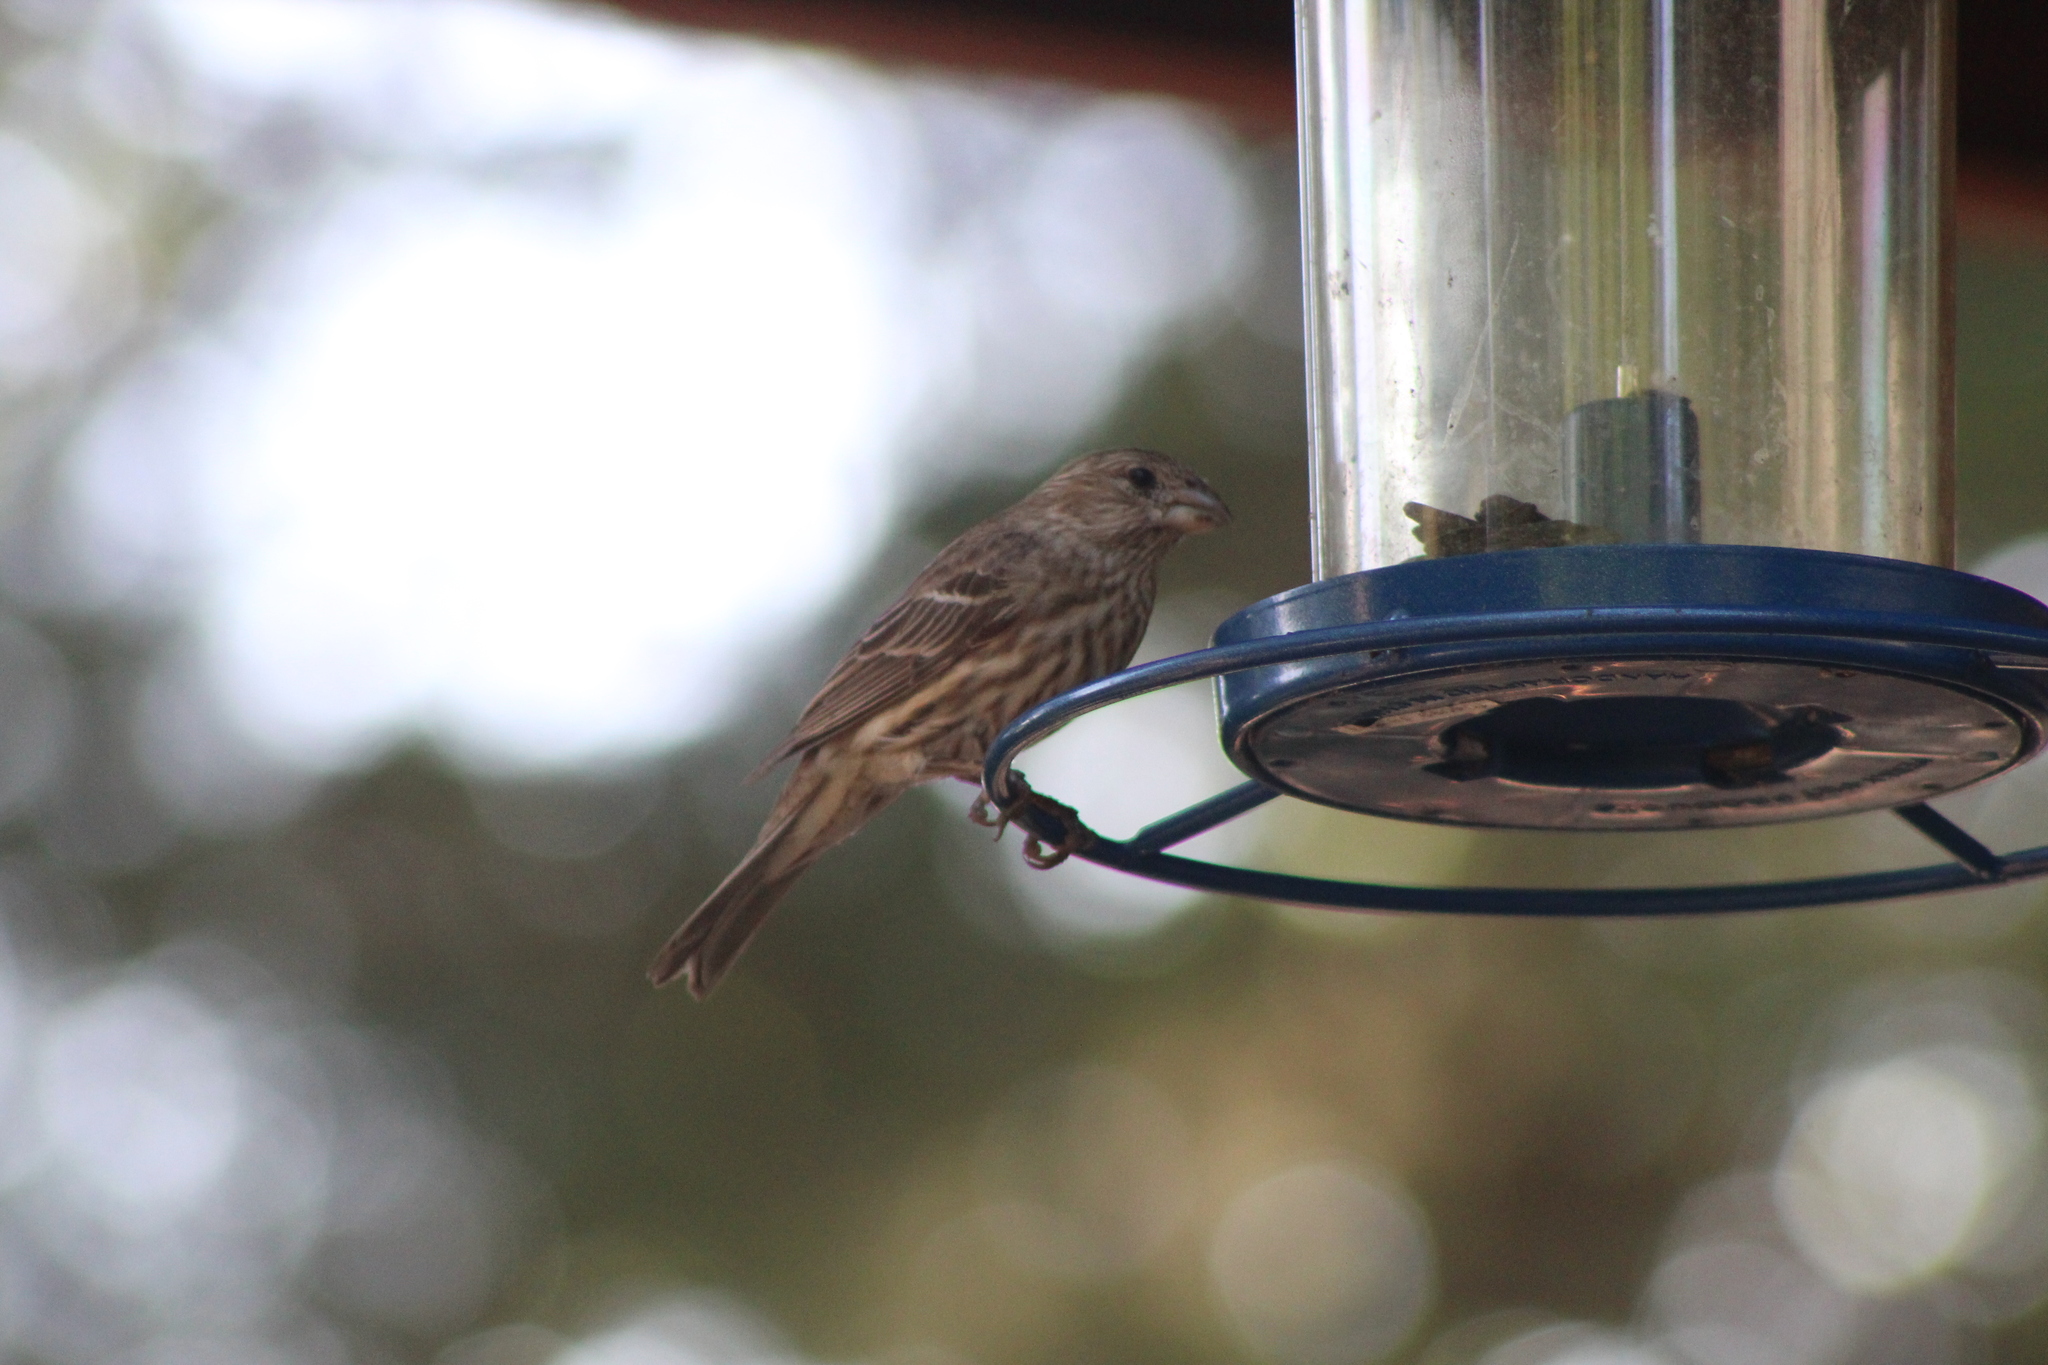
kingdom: Animalia
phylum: Chordata
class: Aves
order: Passeriformes
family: Fringillidae
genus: Haemorhous
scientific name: Haemorhous mexicanus
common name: House finch
